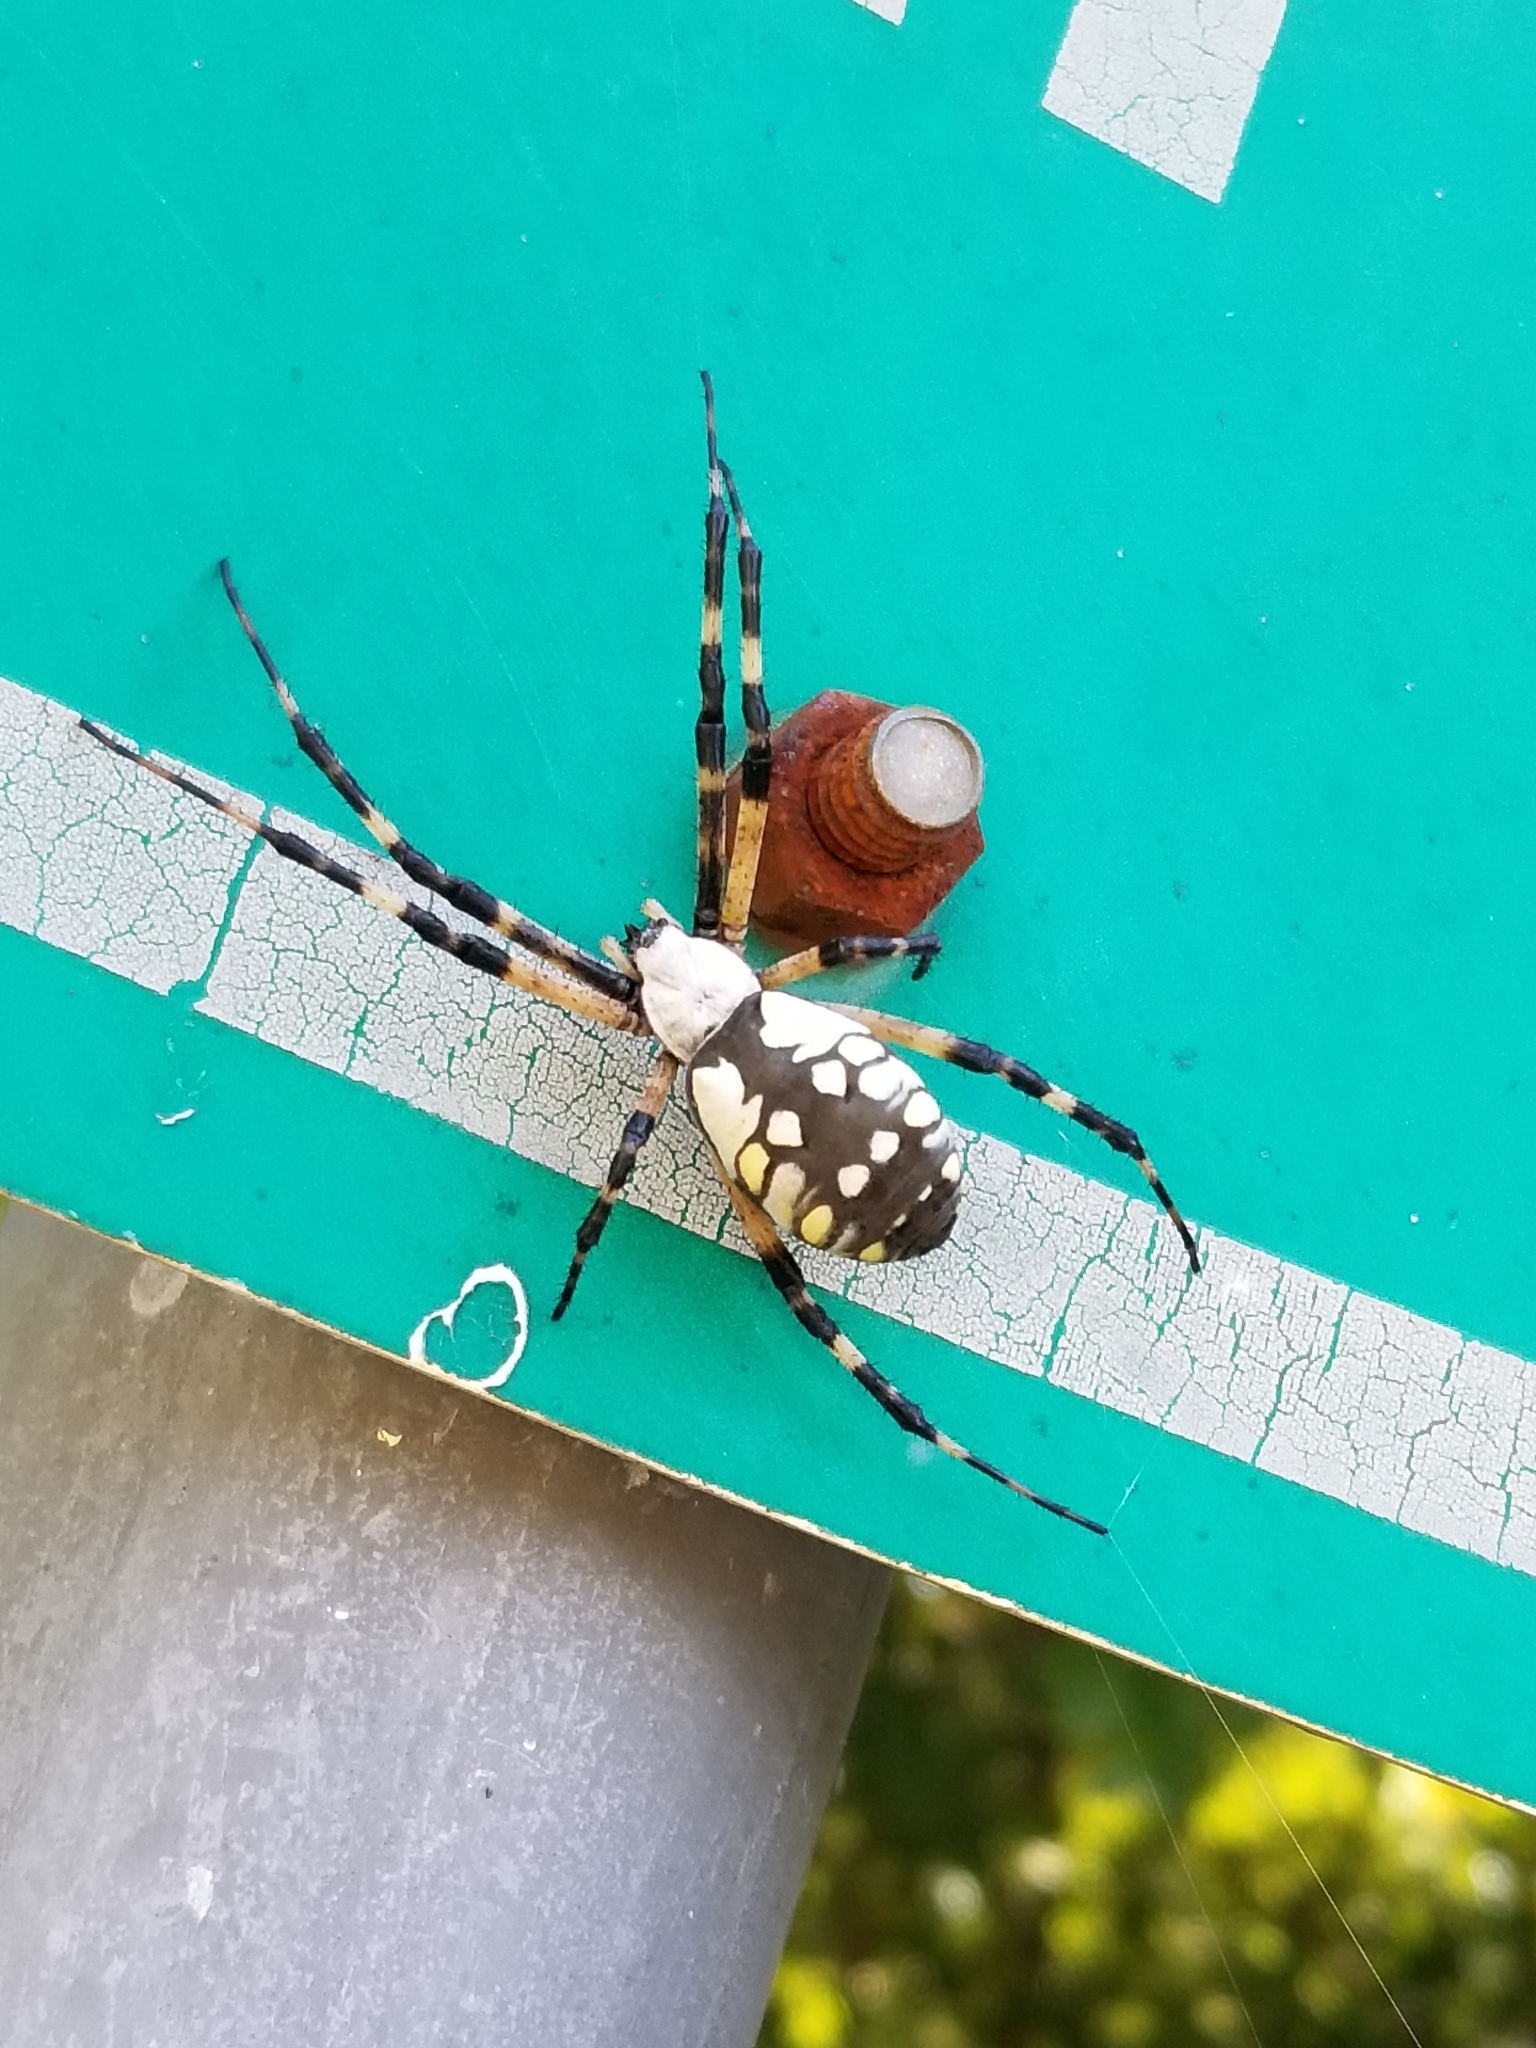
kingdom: Animalia
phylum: Arthropoda
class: Arachnida
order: Araneae
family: Araneidae
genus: Argiope
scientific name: Argiope aurantia
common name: Orb weavers
